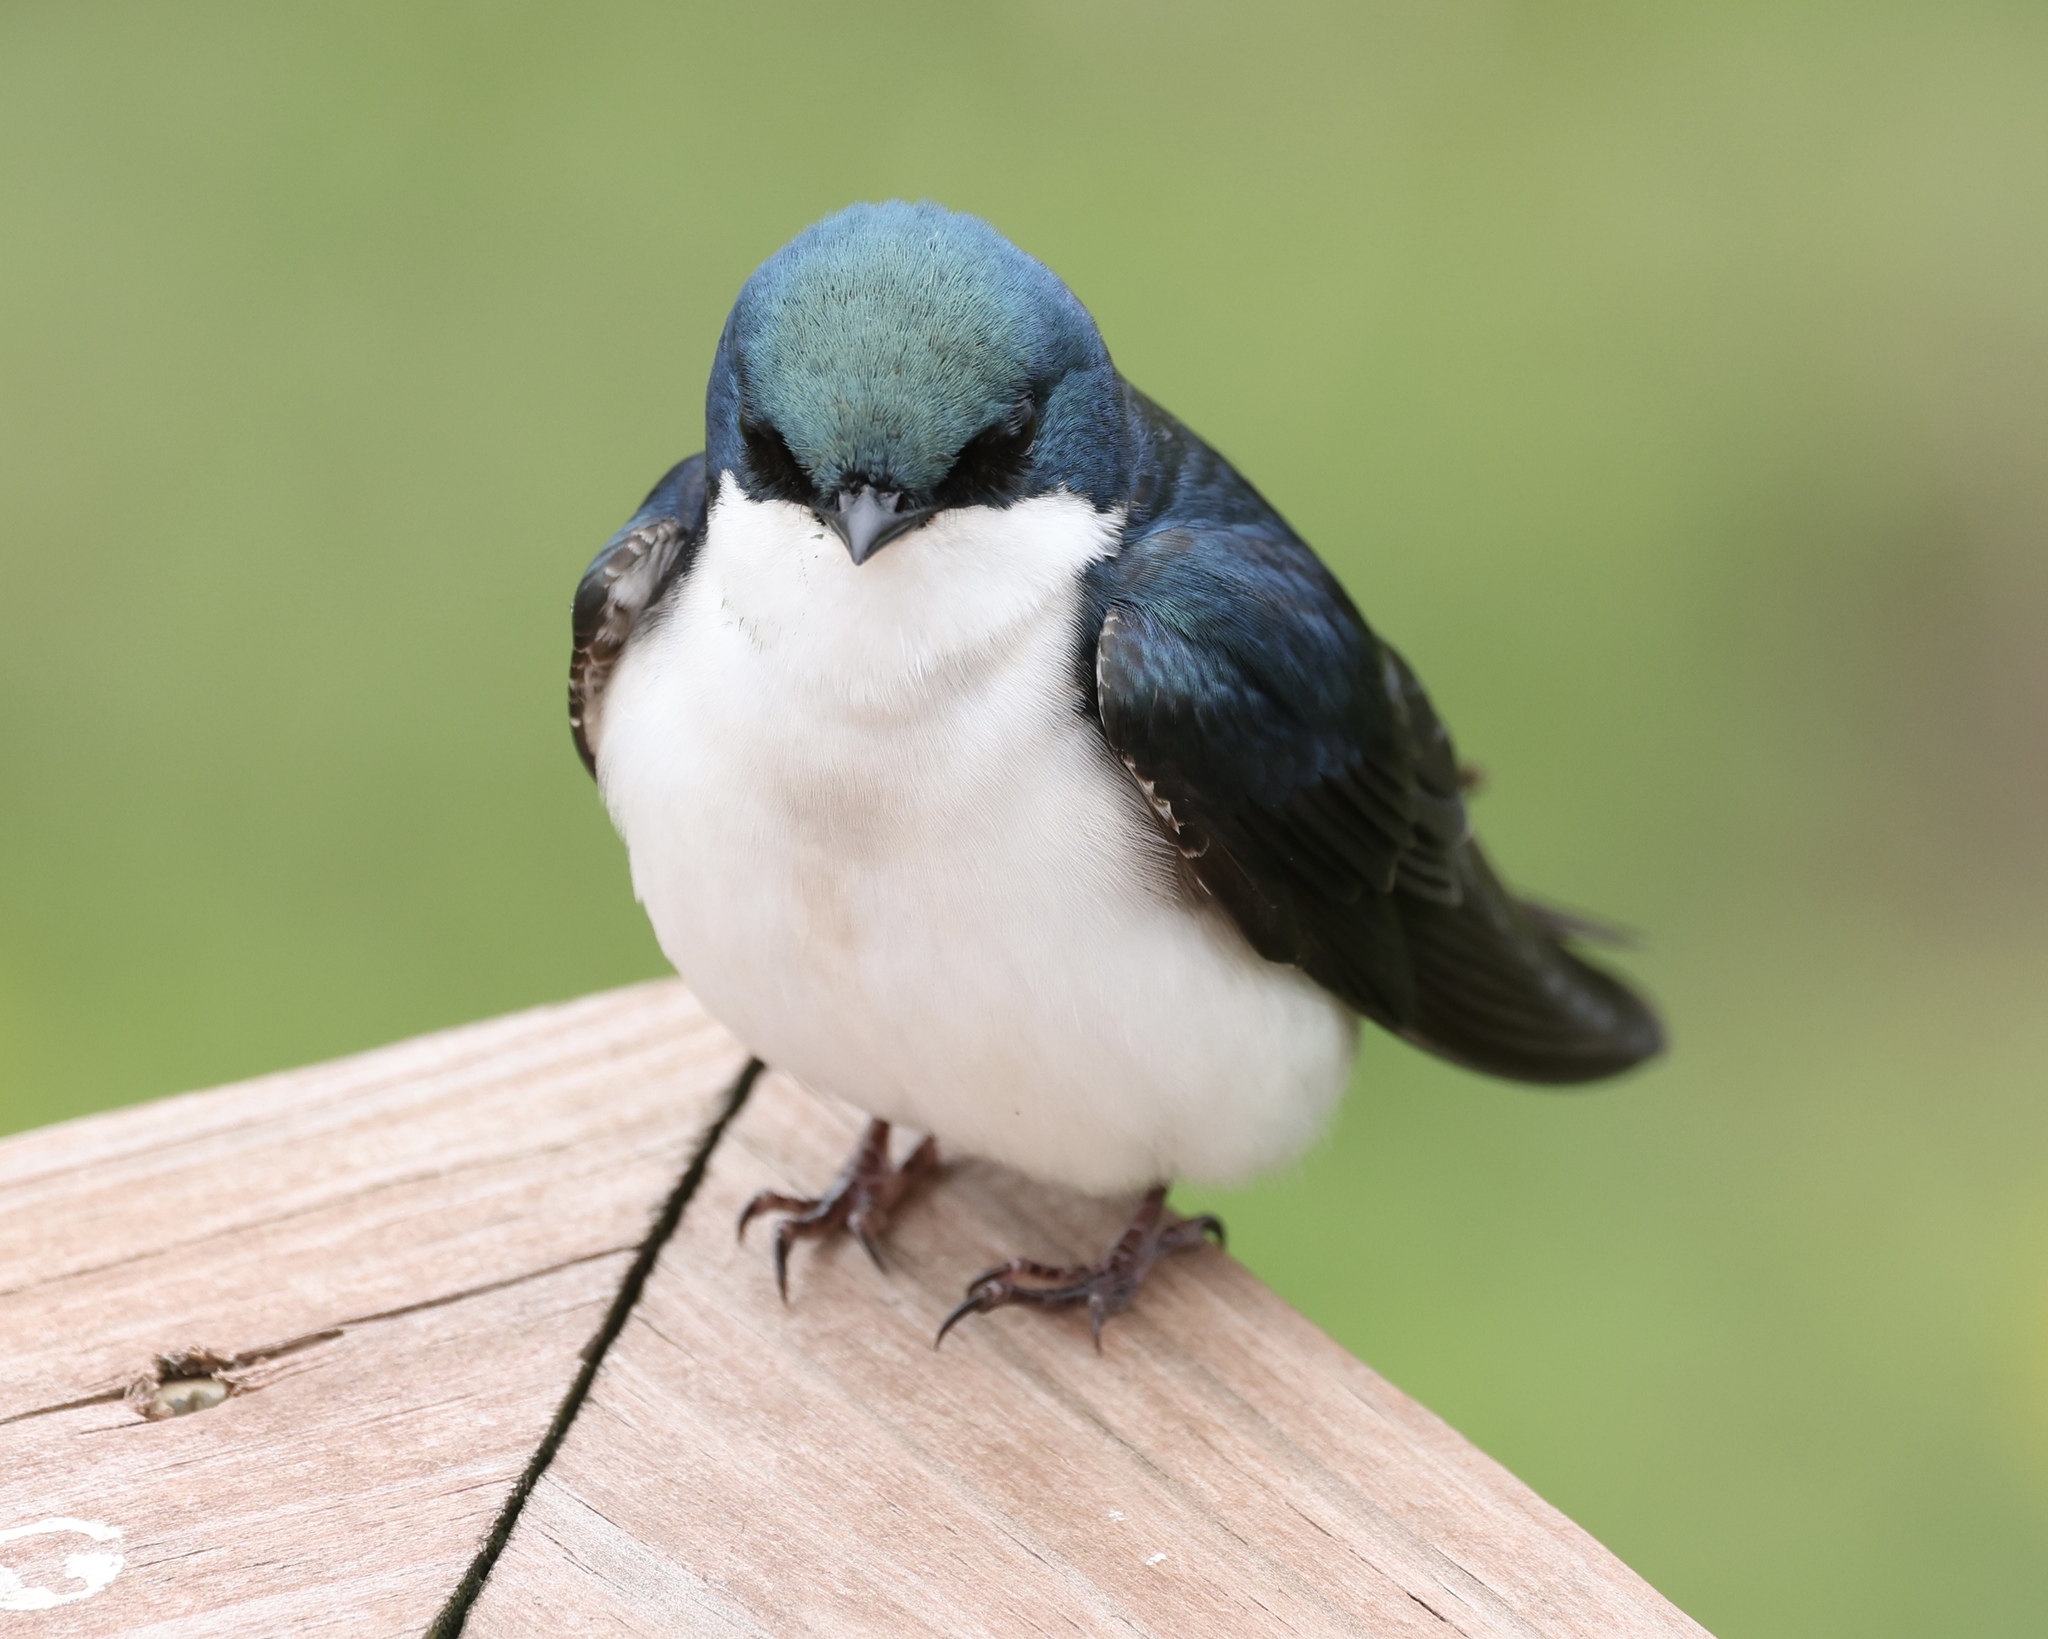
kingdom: Animalia
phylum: Chordata
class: Aves
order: Passeriformes
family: Hirundinidae
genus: Tachycineta
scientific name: Tachycineta bicolor
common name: Tree swallow
